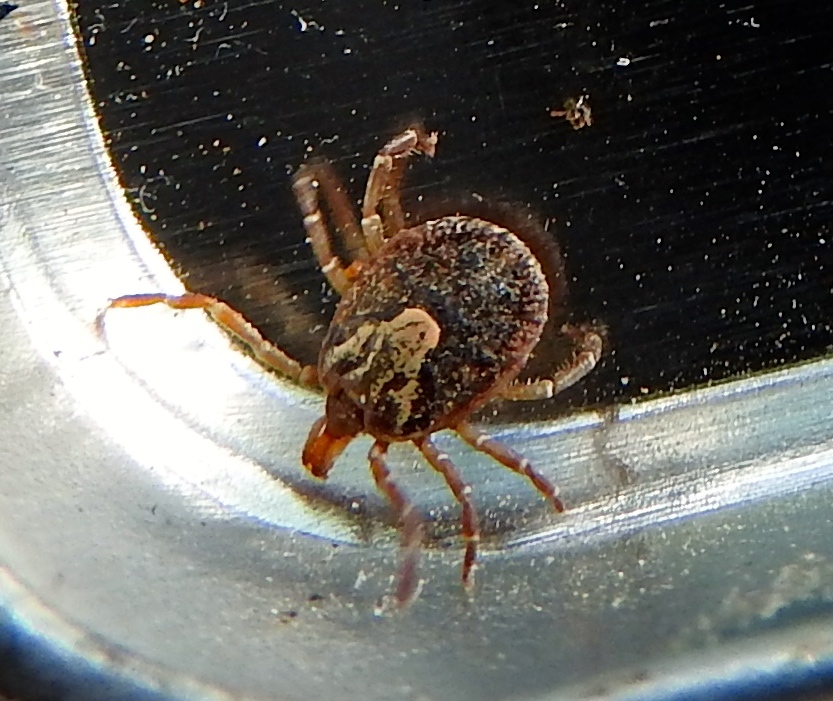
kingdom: Animalia
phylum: Arthropoda
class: Arachnida
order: Ixodida
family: Ixodidae
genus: Amblyomma
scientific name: Amblyomma
